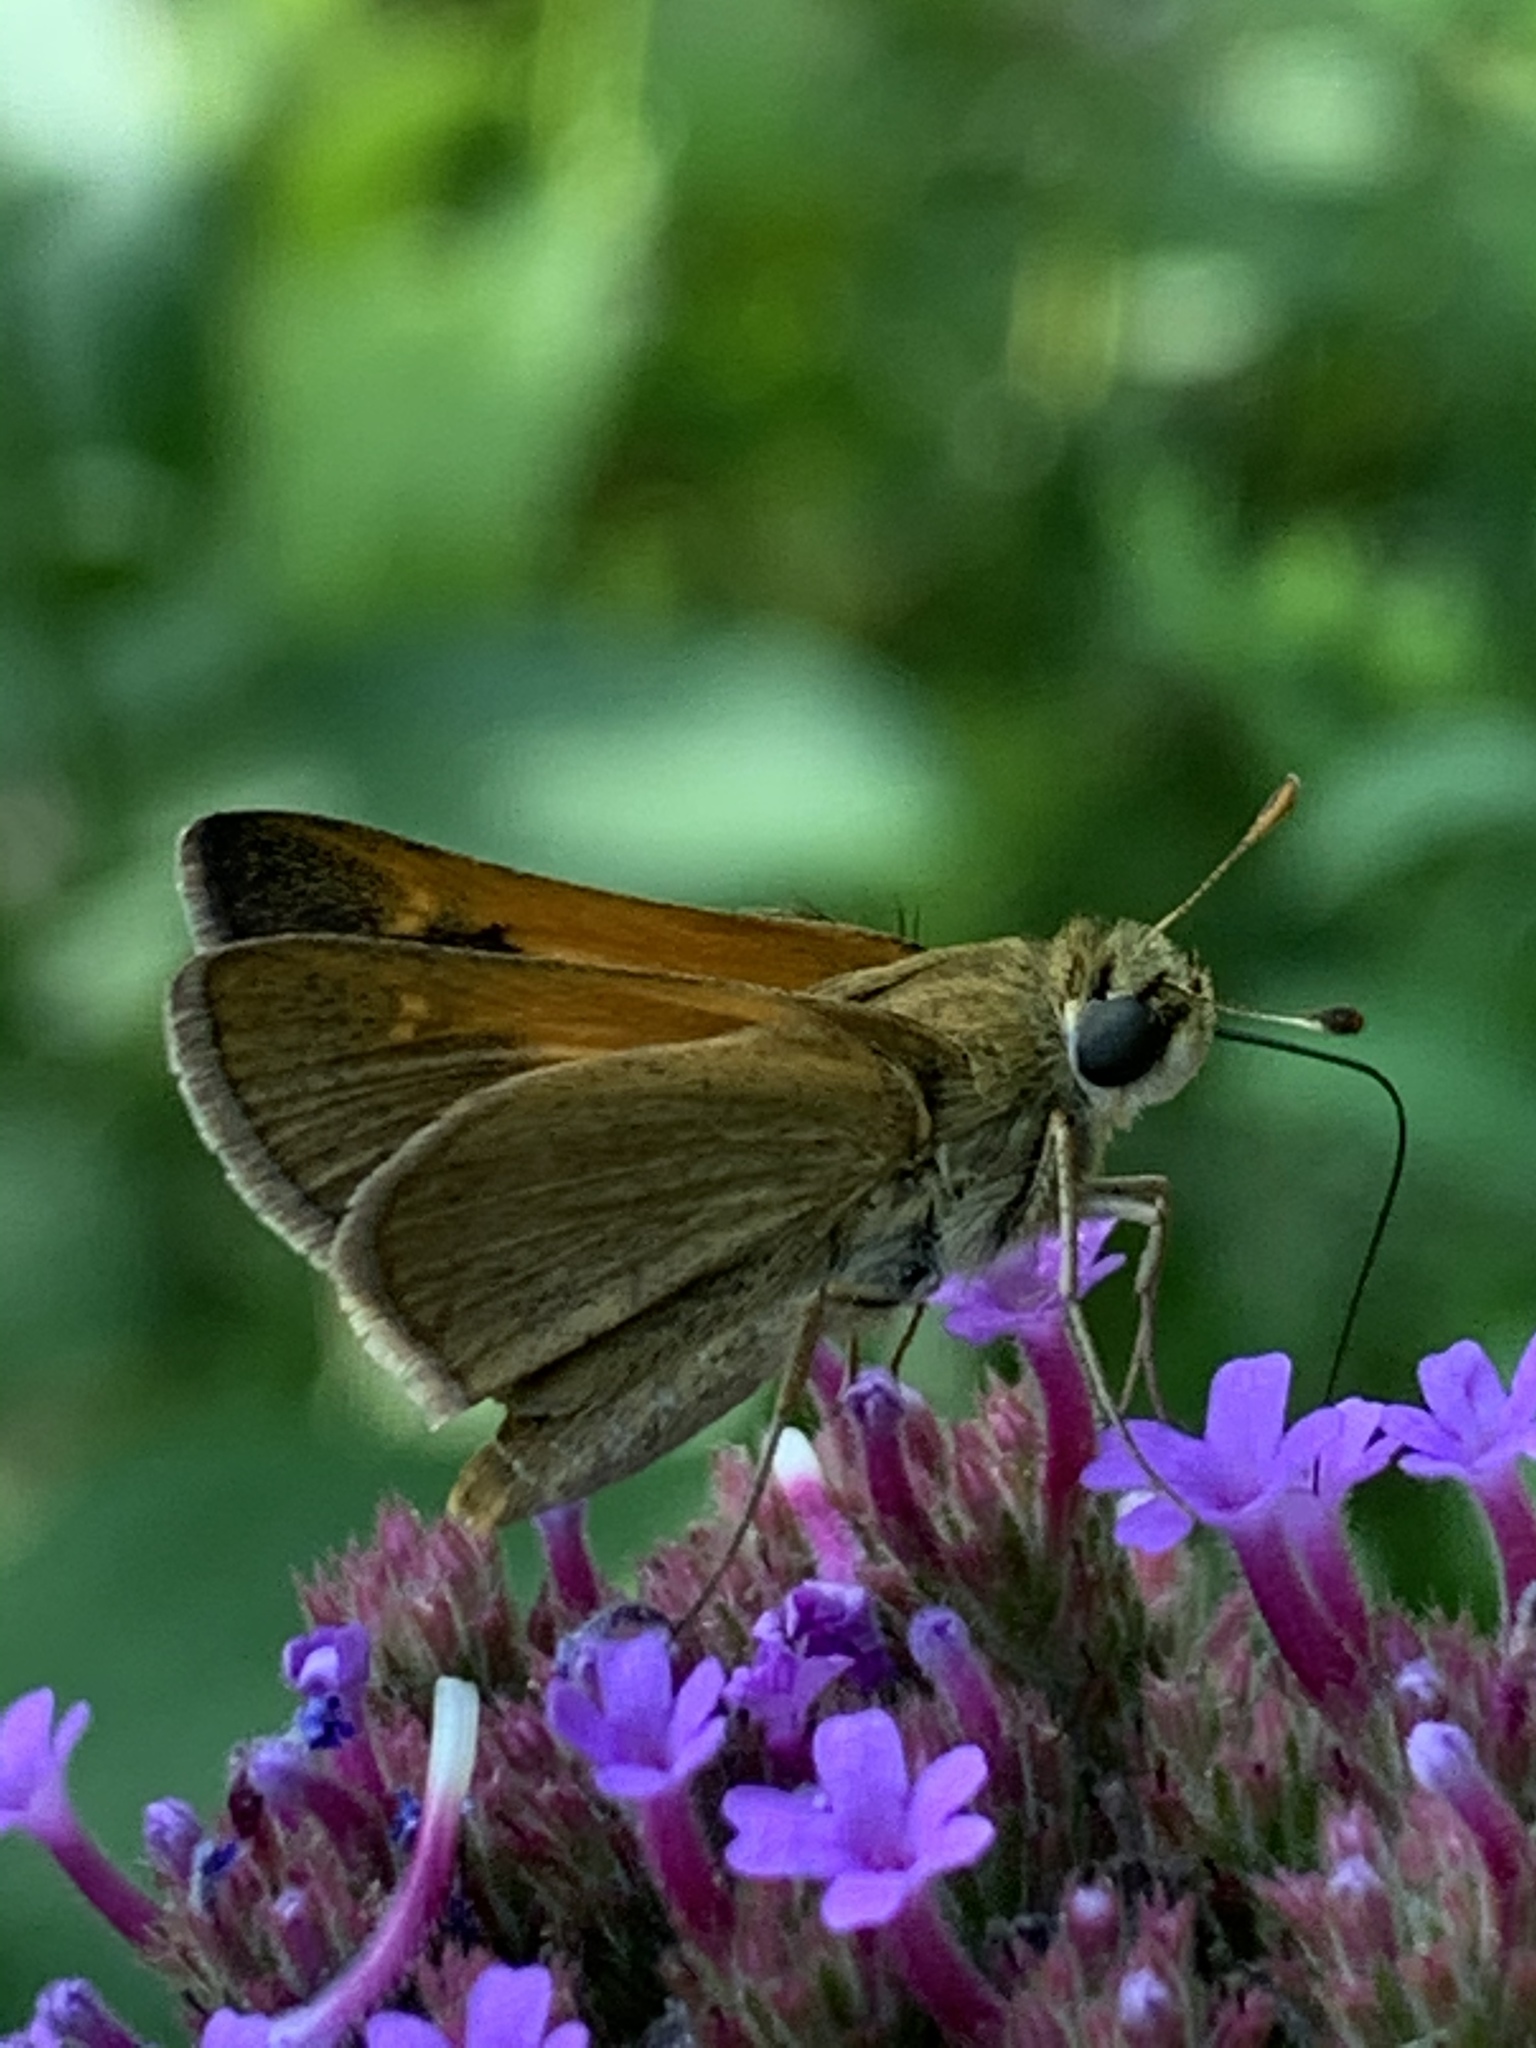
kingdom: Animalia
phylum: Arthropoda
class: Insecta
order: Lepidoptera
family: Hesperiidae
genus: Polites
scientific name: Polites themistocles
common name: Tawny-edged skipper
